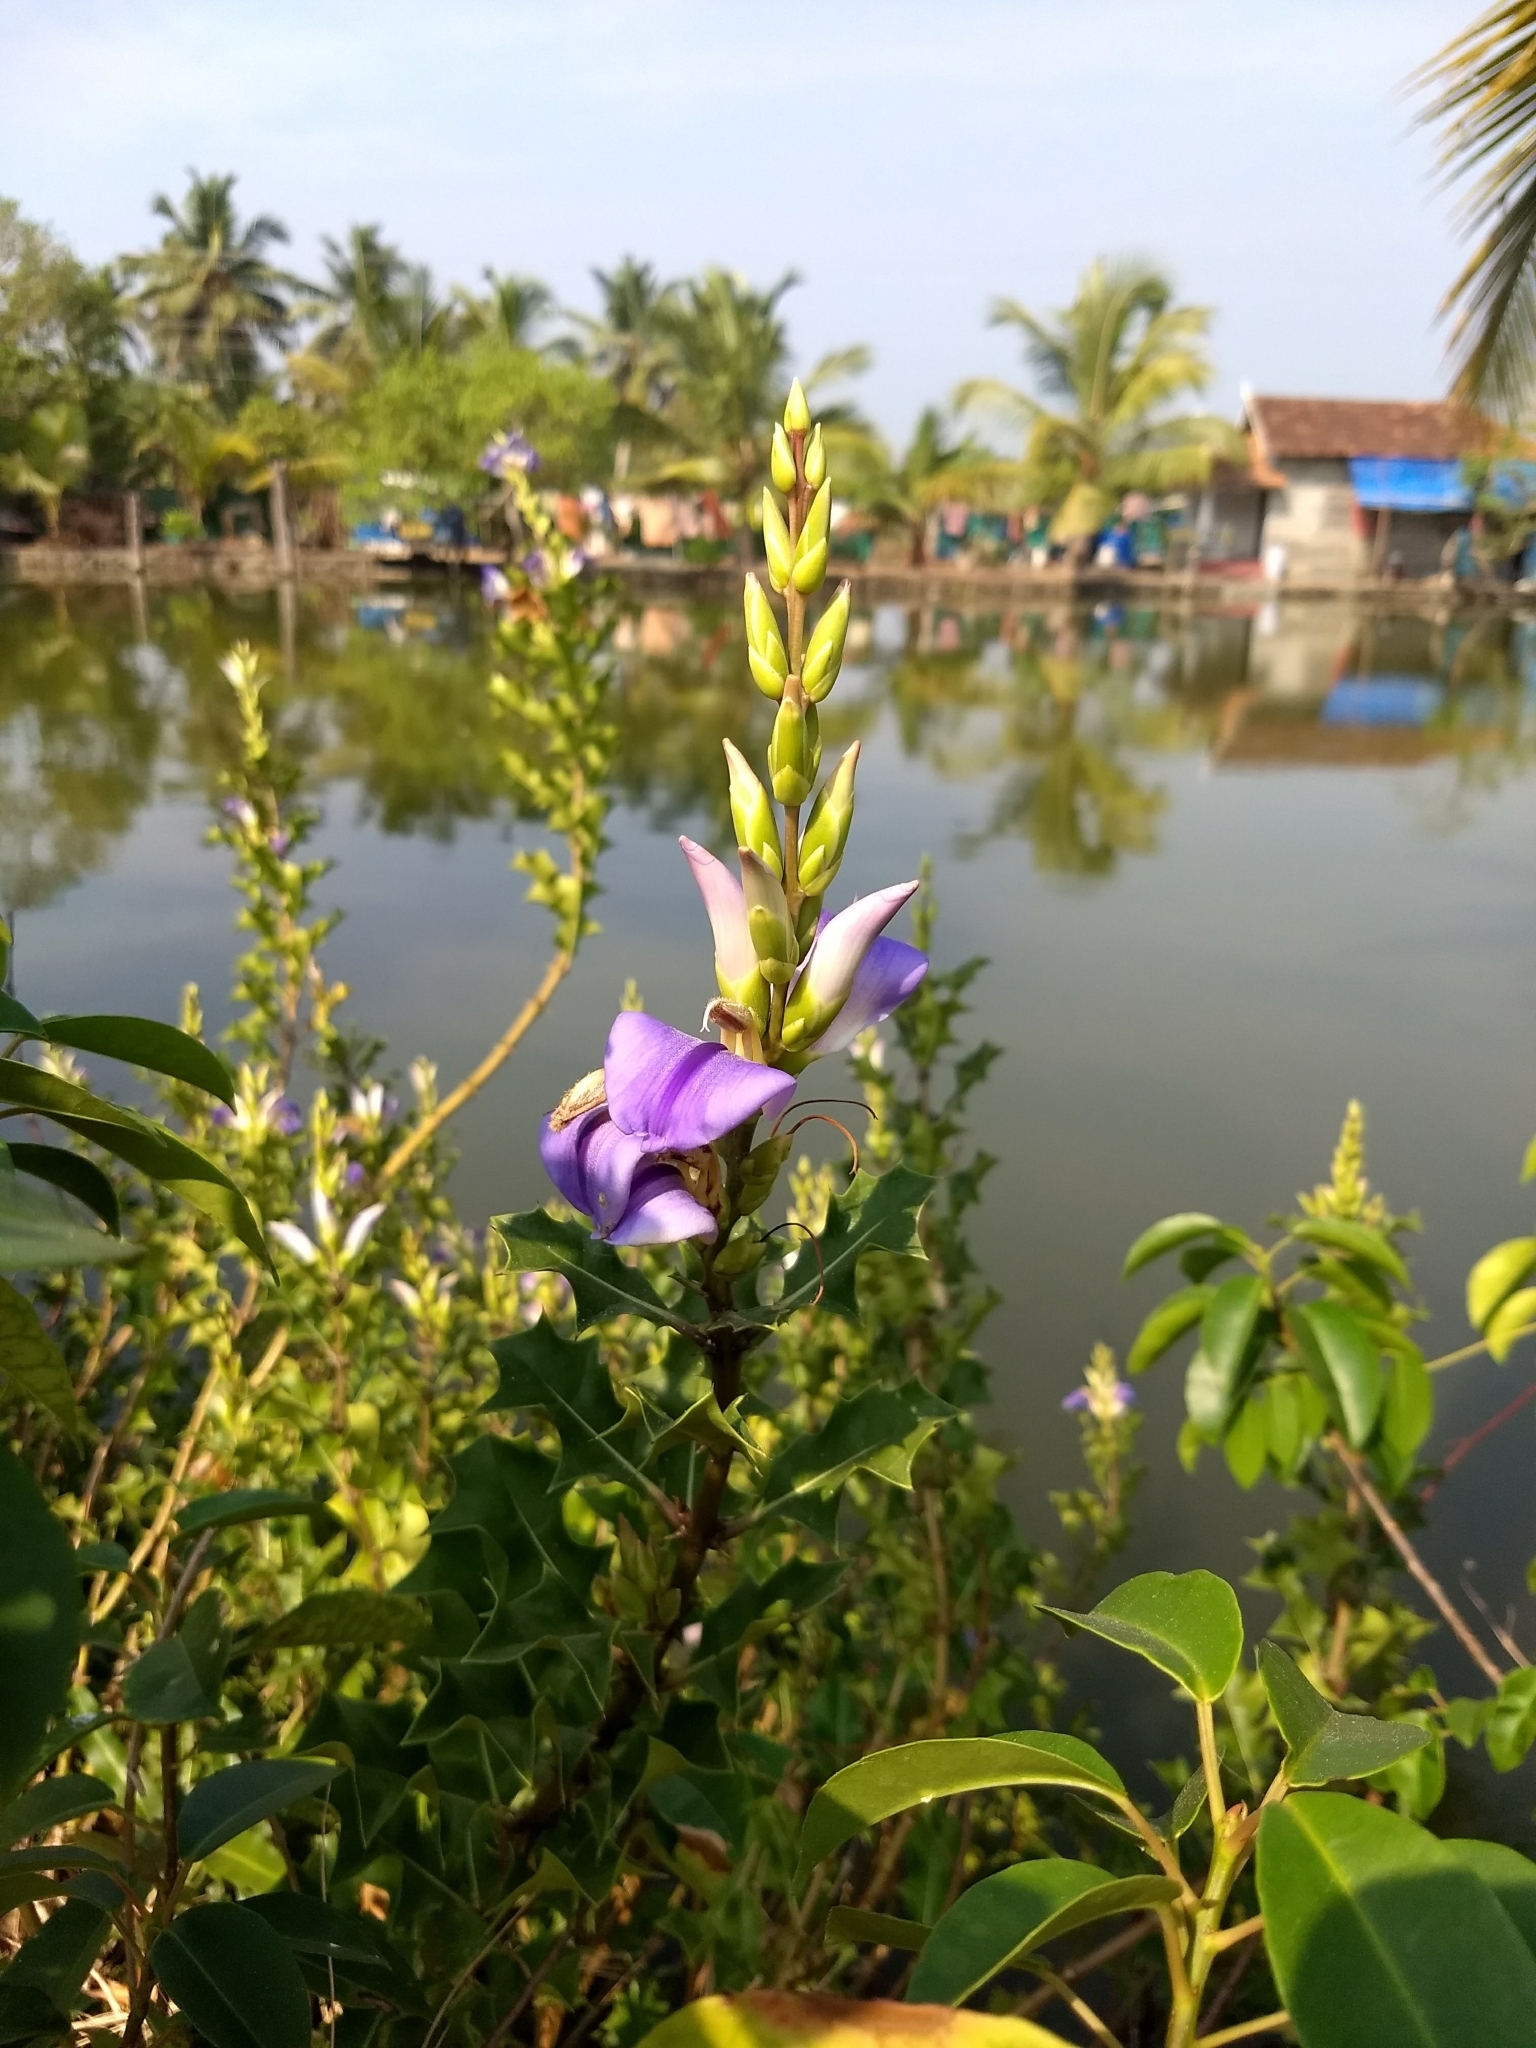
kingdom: Plantae
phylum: Tracheophyta
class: Magnoliopsida
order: Lamiales
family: Acanthaceae
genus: Acanthus
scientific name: Acanthus ilicifolius
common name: Holy mangrove
